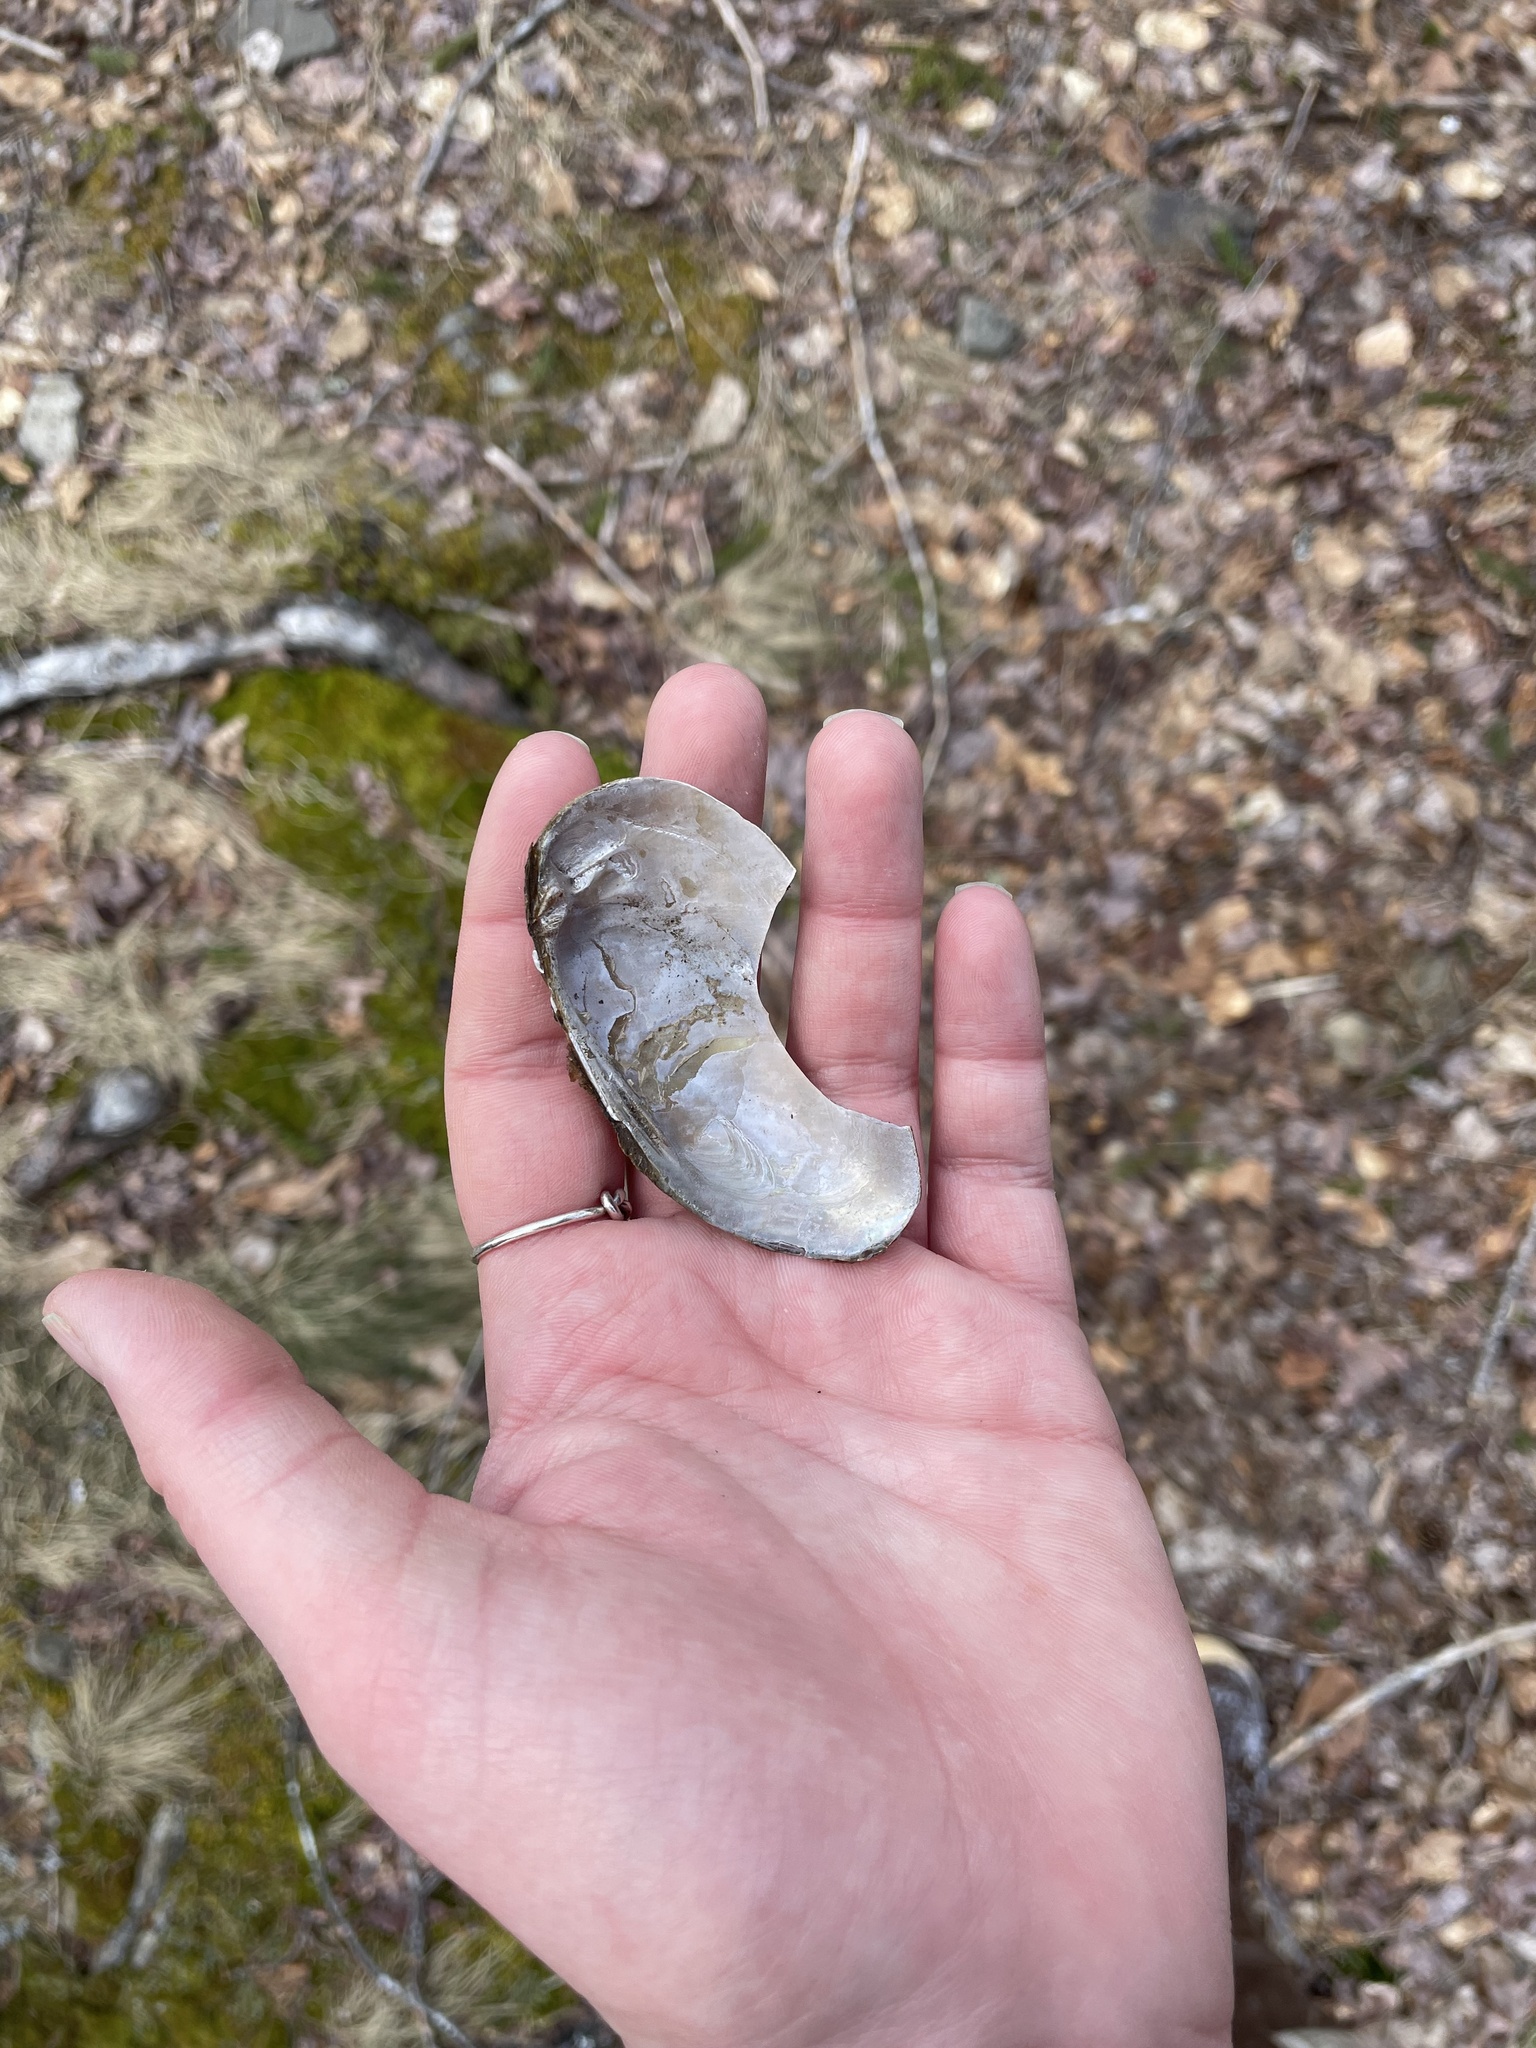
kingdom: Animalia
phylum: Mollusca
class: Bivalvia
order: Unionida
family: Unionidae
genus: Elliptio
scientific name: Elliptio complanata
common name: Eastern elliptio
